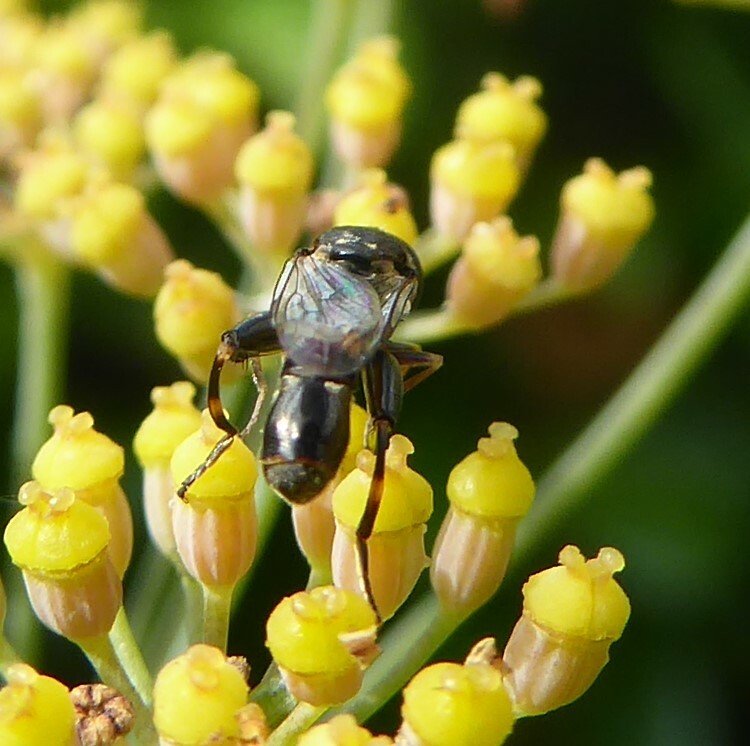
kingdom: Animalia
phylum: Arthropoda
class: Insecta
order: Diptera
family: Syrphidae
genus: Syritta
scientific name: Syritta pipiens
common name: Hover fly
